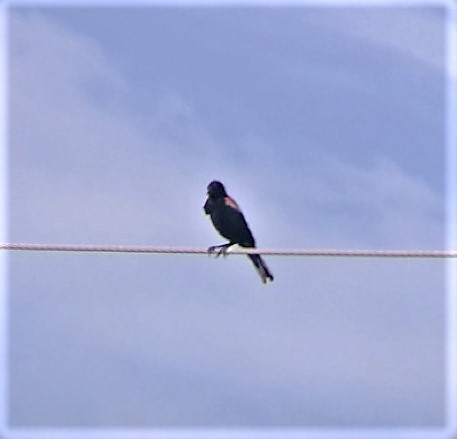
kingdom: Animalia
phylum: Chordata
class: Aves
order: Passeriformes
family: Icteridae
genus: Agelaius
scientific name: Agelaius phoeniceus
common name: Red-winged blackbird
